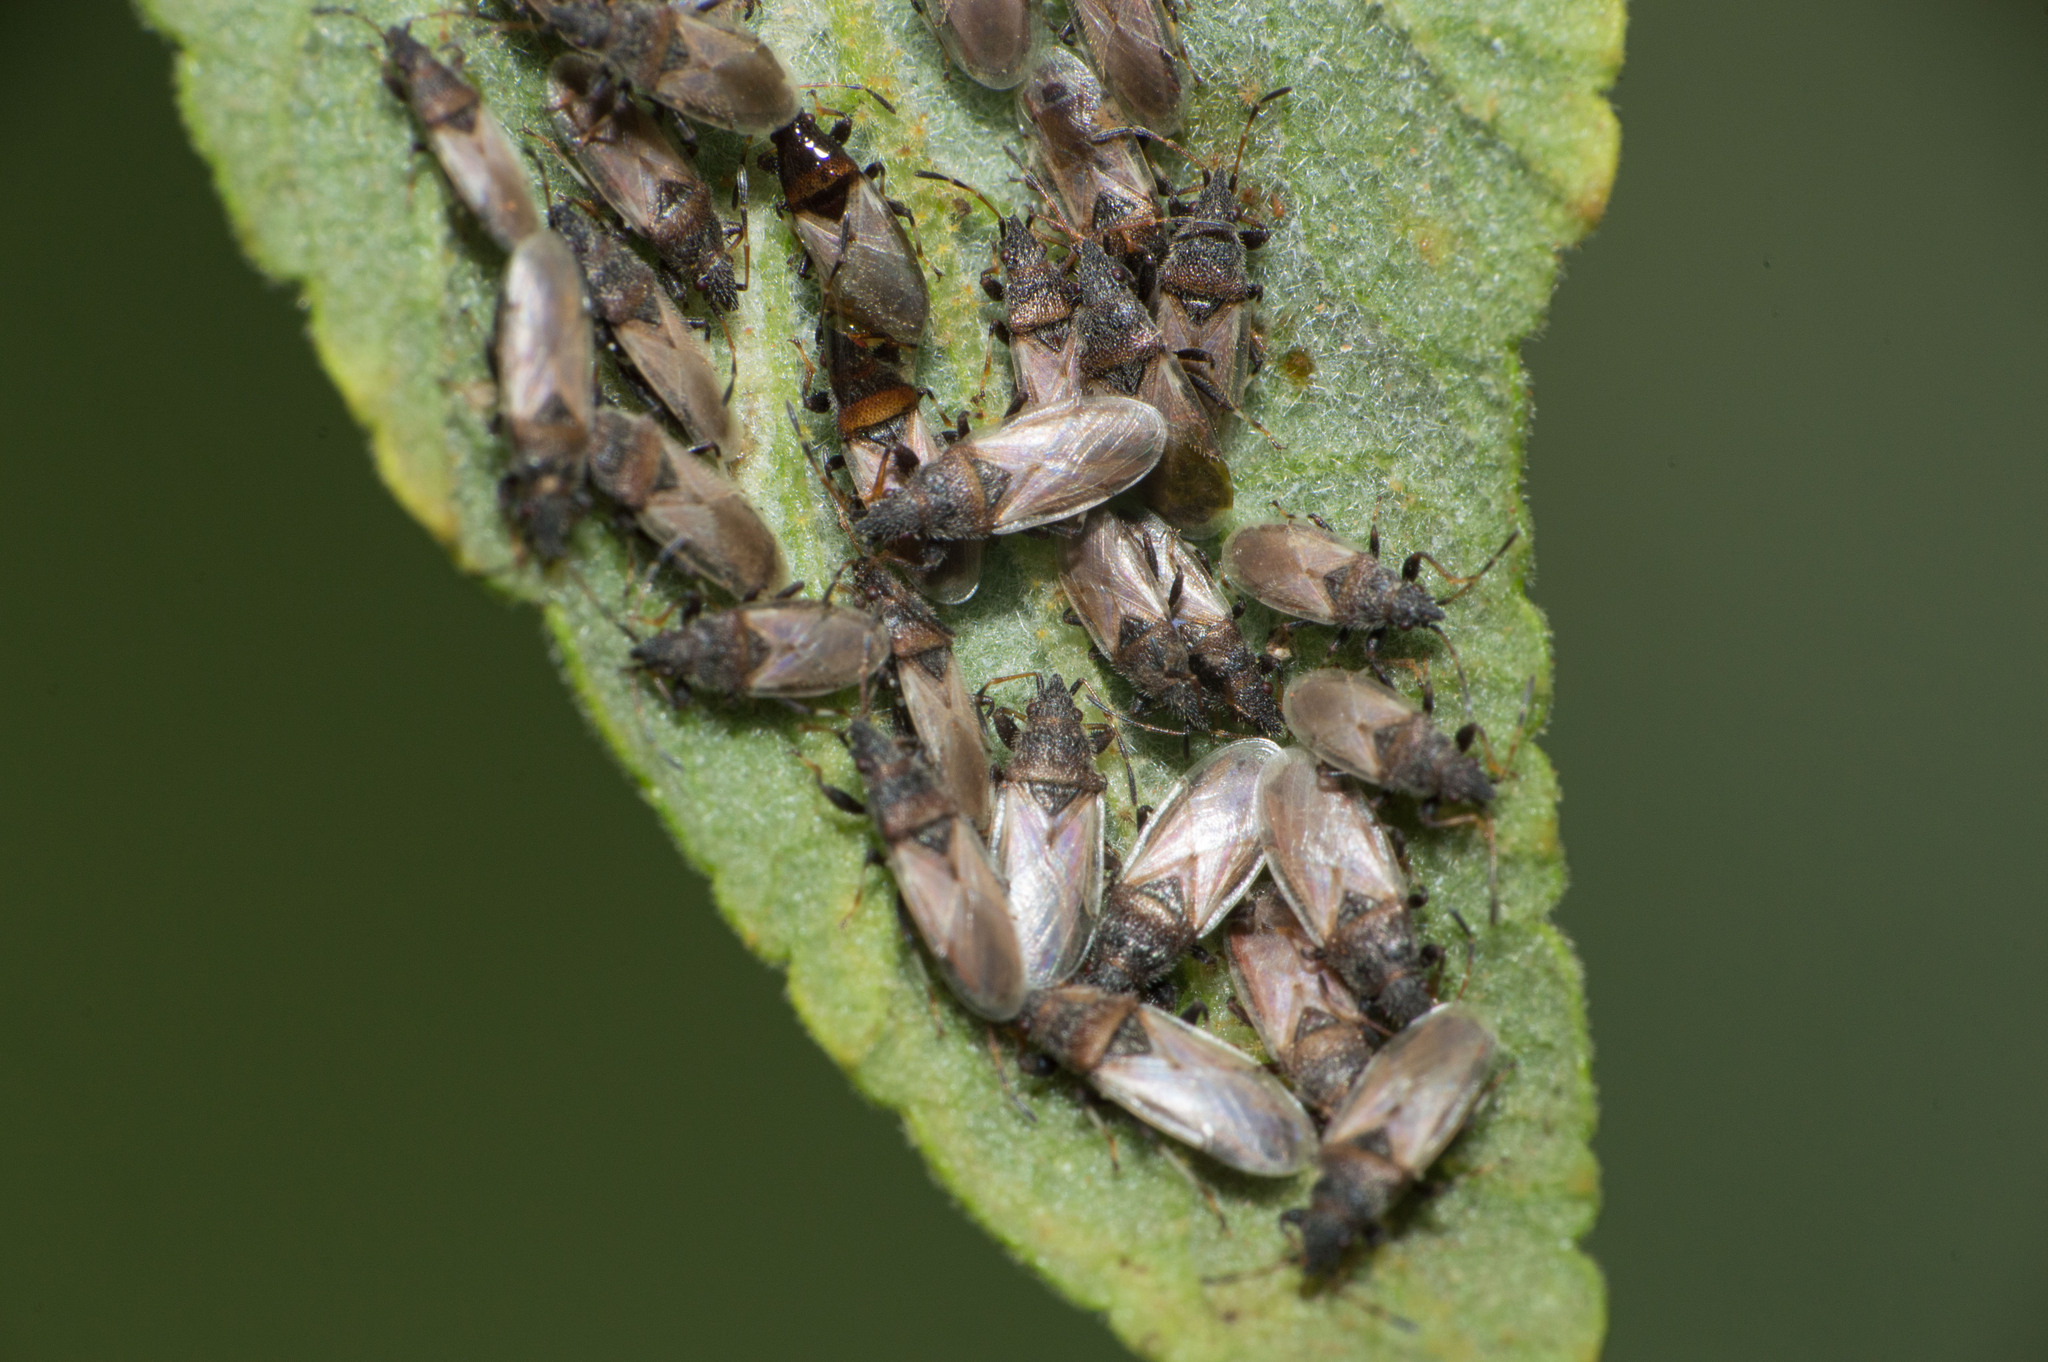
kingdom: Animalia
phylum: Arthropoda
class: Insecta
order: Hemiptera
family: Oxycarenidae
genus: Oxycarenus
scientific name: Oxycarenus hyalinipennis
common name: Cotton seed bug
